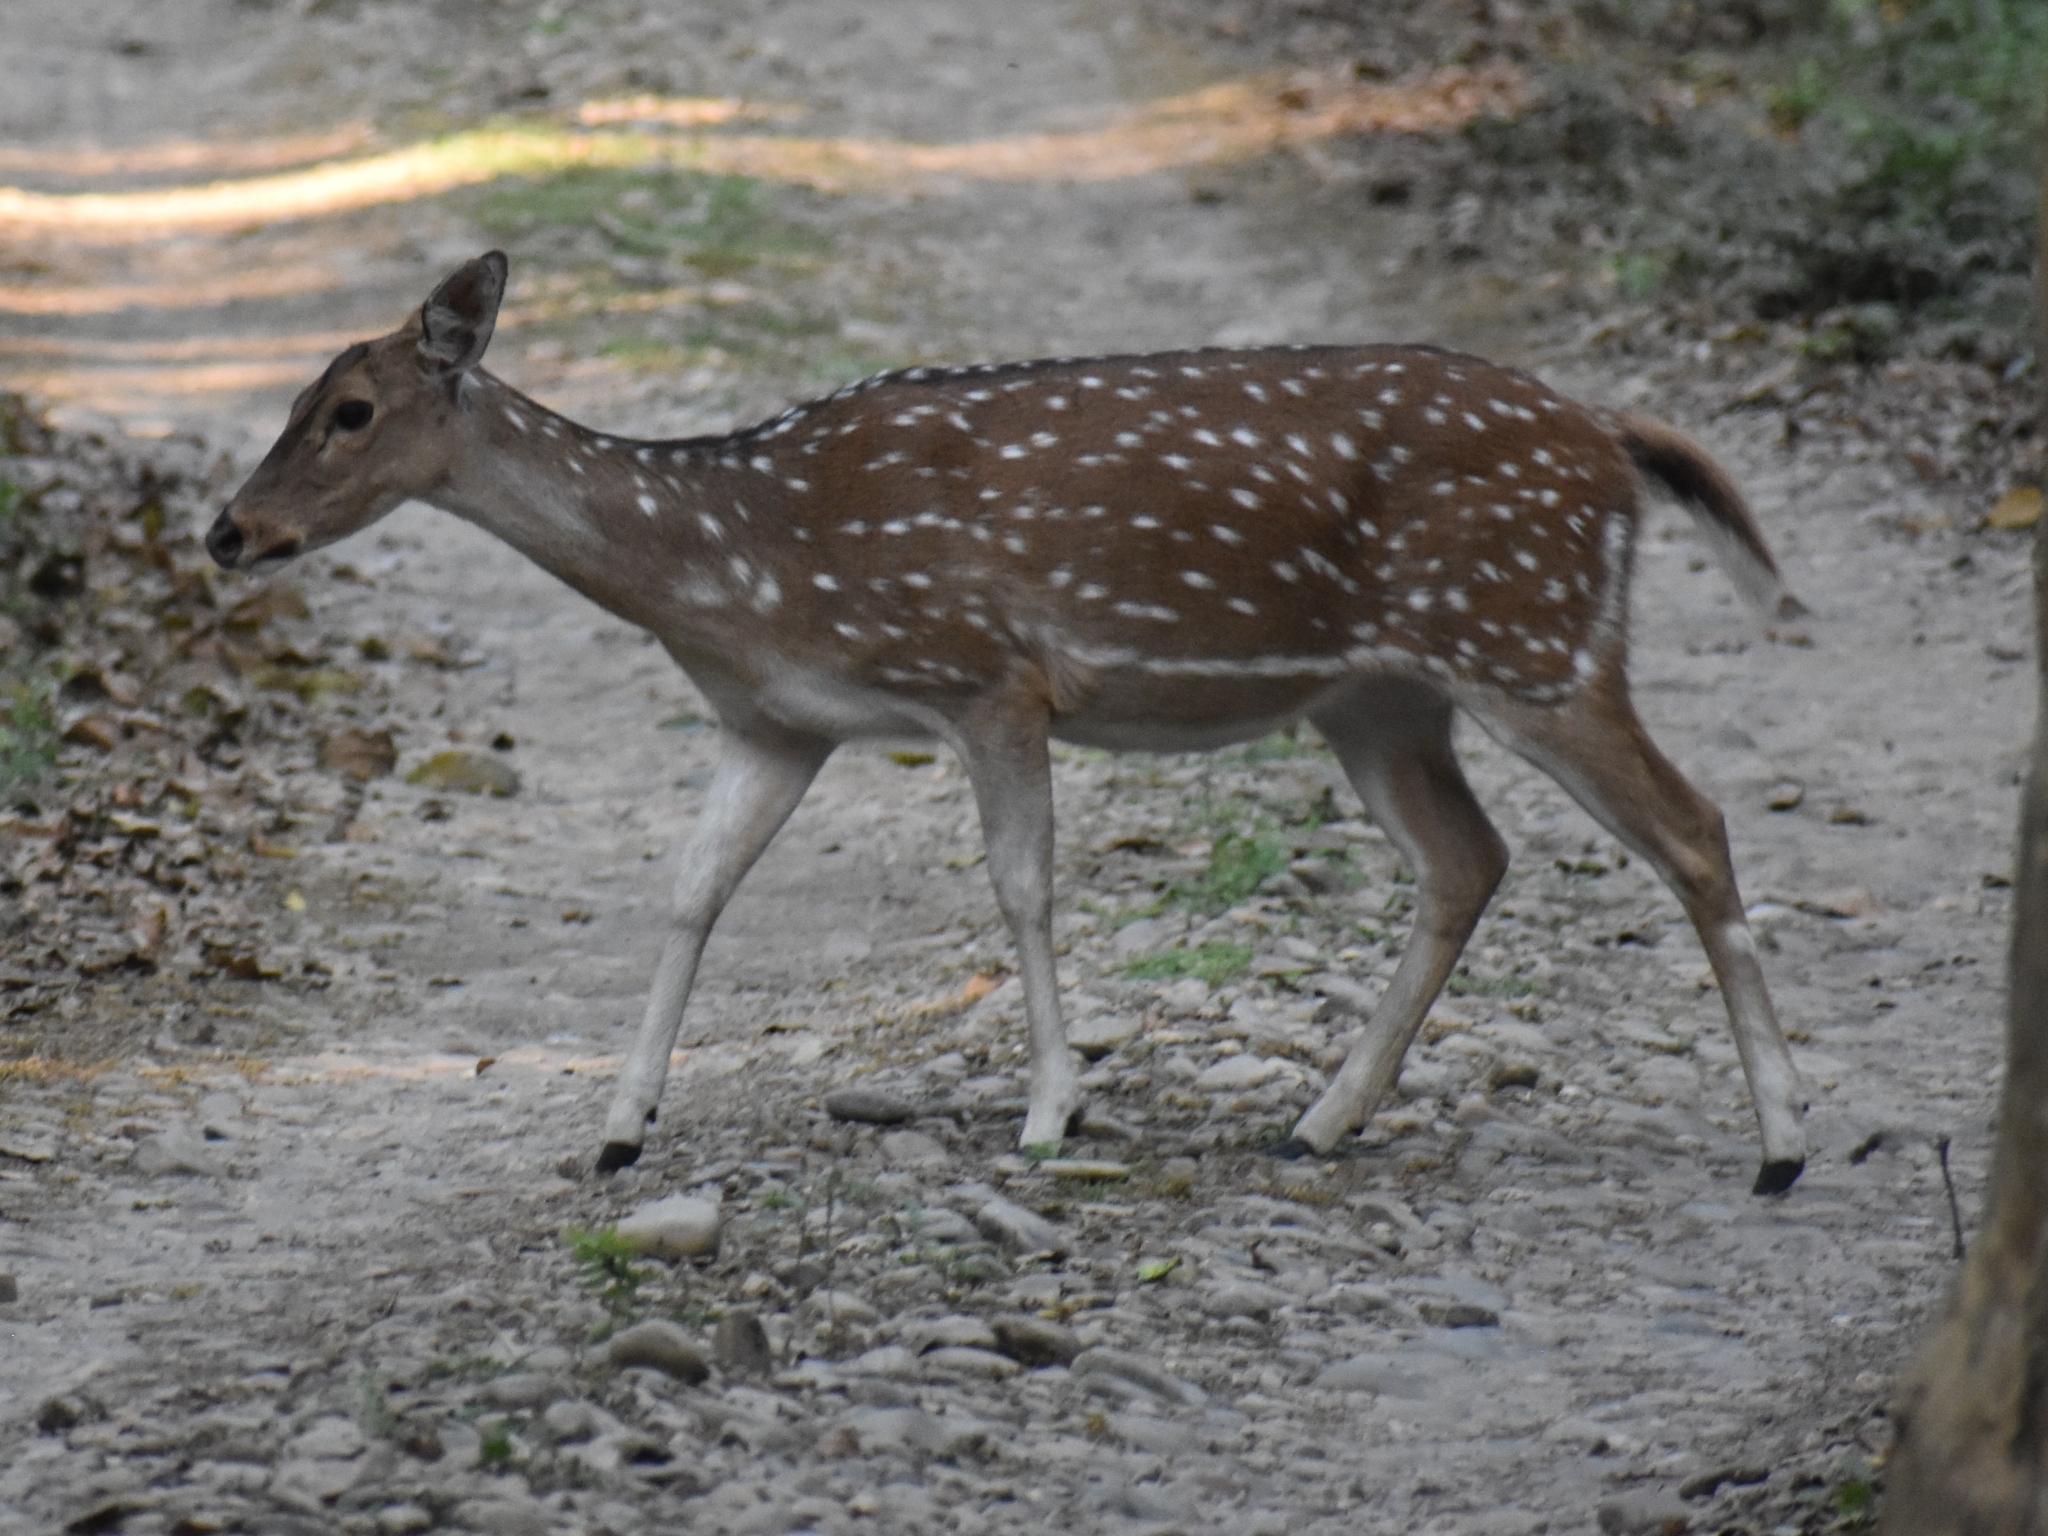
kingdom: Animalia
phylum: Chordata
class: Mammalia
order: Artiodactyla
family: Cervidae
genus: Axis
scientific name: Axis axis
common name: Chital
